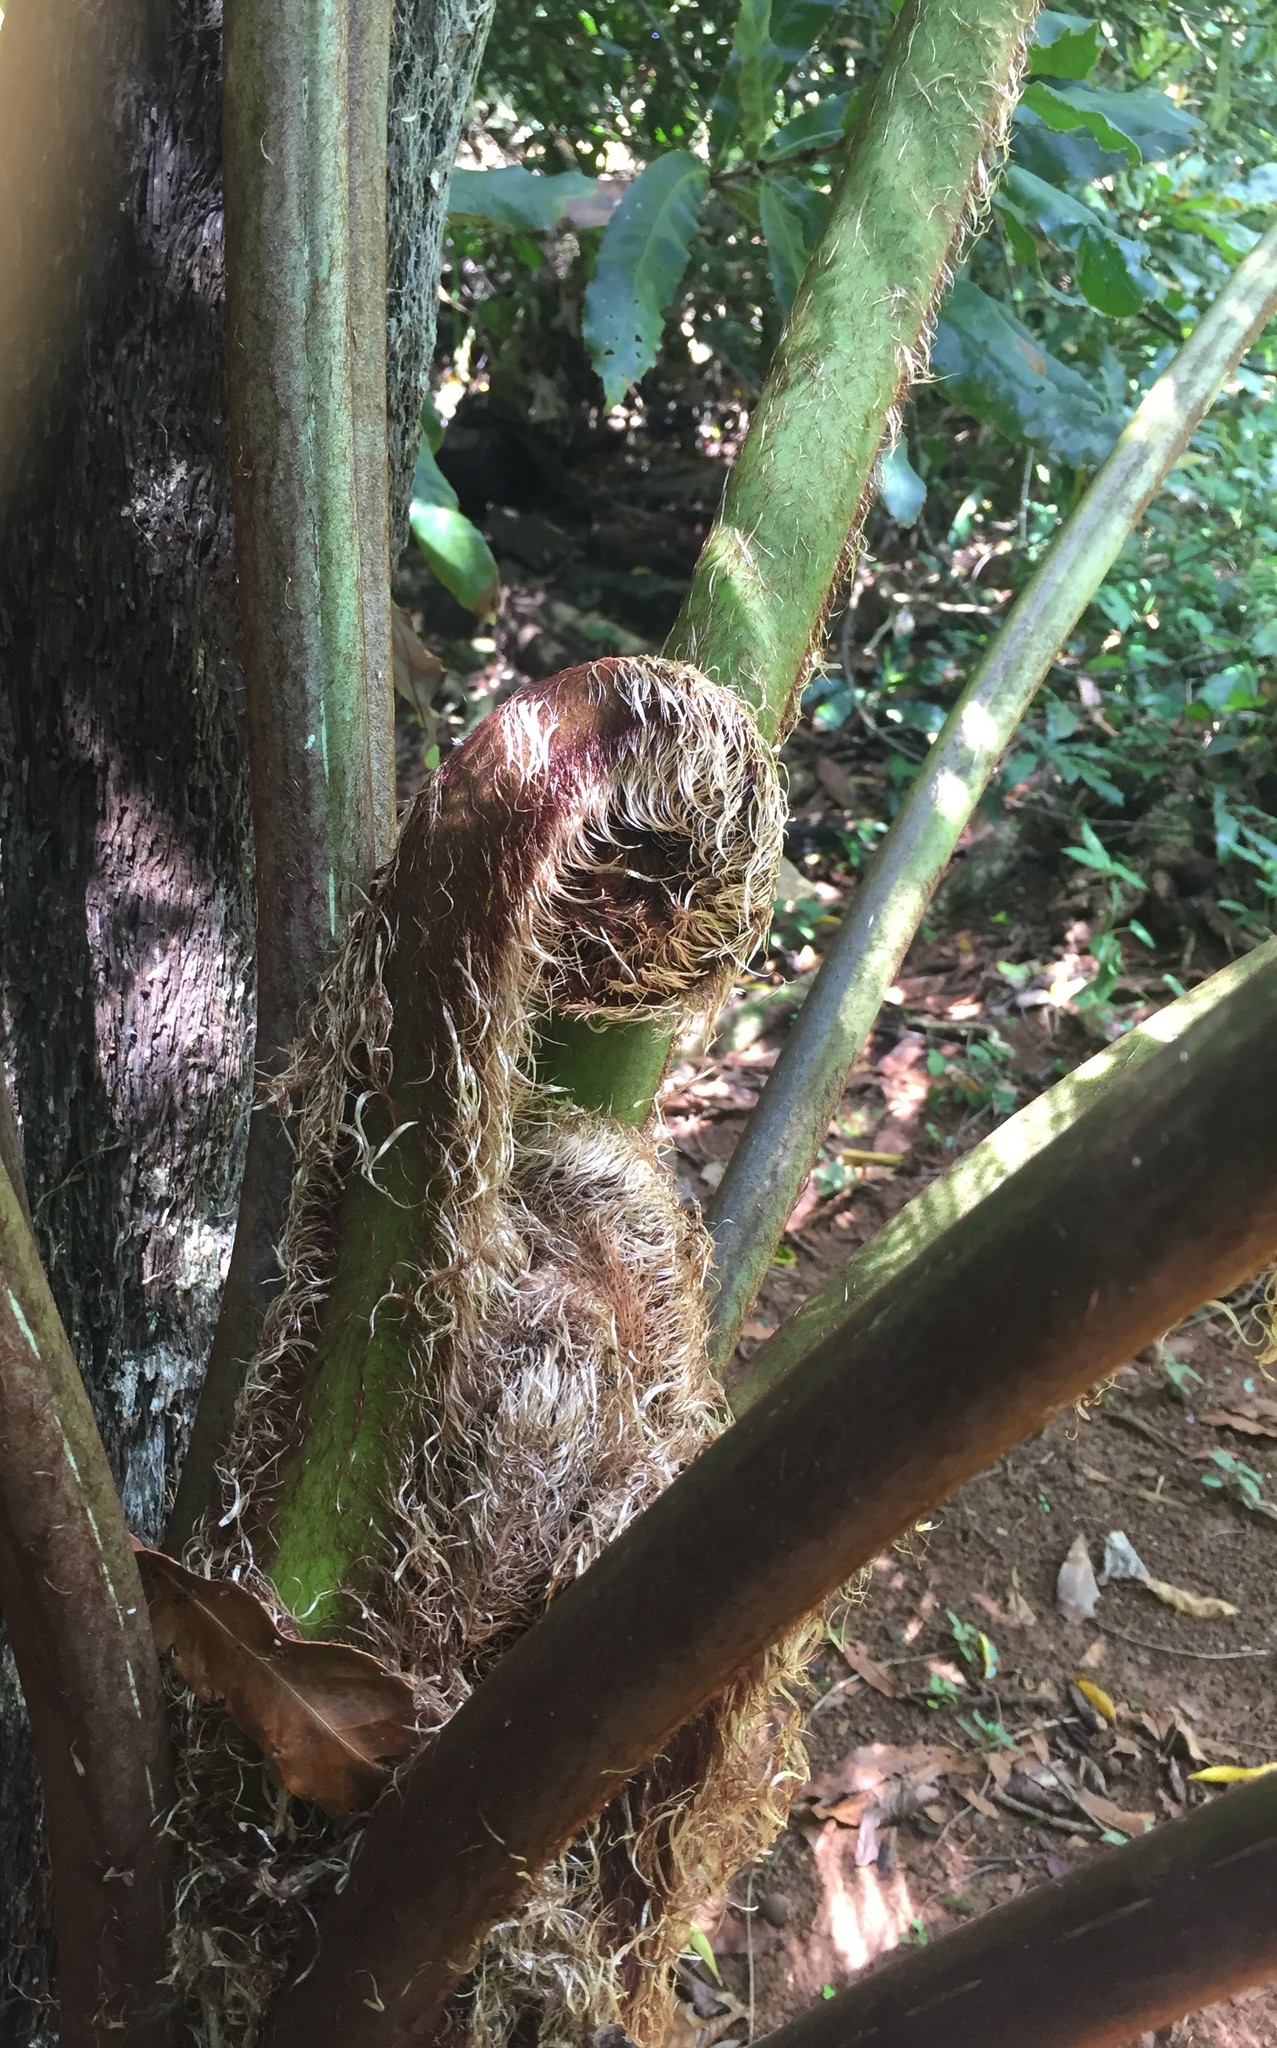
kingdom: Plantae
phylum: Tracheophyta
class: Polypodiopsida
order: Cyatheales
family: Cyatheaceae
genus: Sphaeropteris
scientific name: Sphaeropteris cooperi
